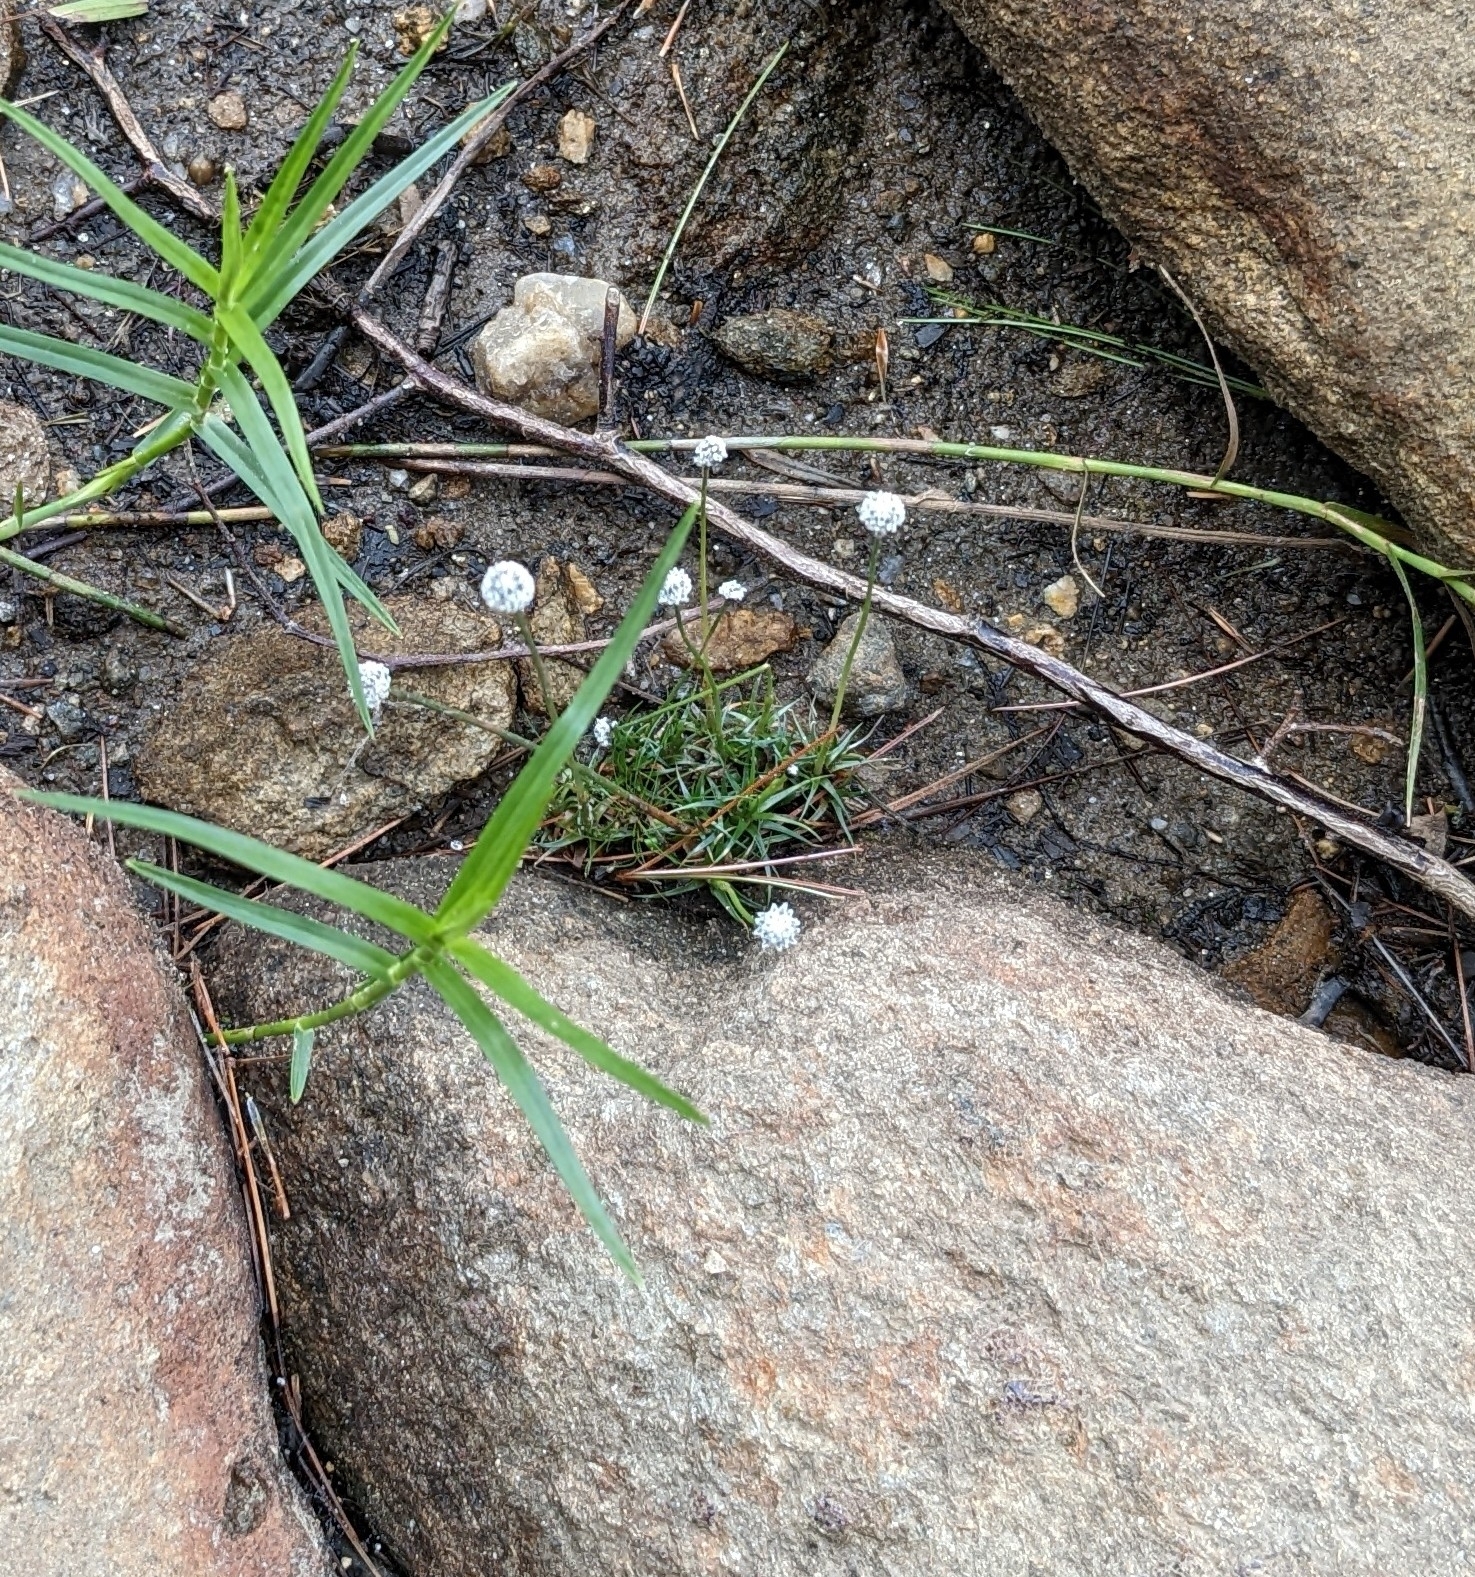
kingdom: Plantae
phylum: Tracheophyta
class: Liliopsida
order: Poales
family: Eriocaulaceae
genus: Eriocaulon
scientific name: Eriocaulon aquaticum
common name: Pipewort
